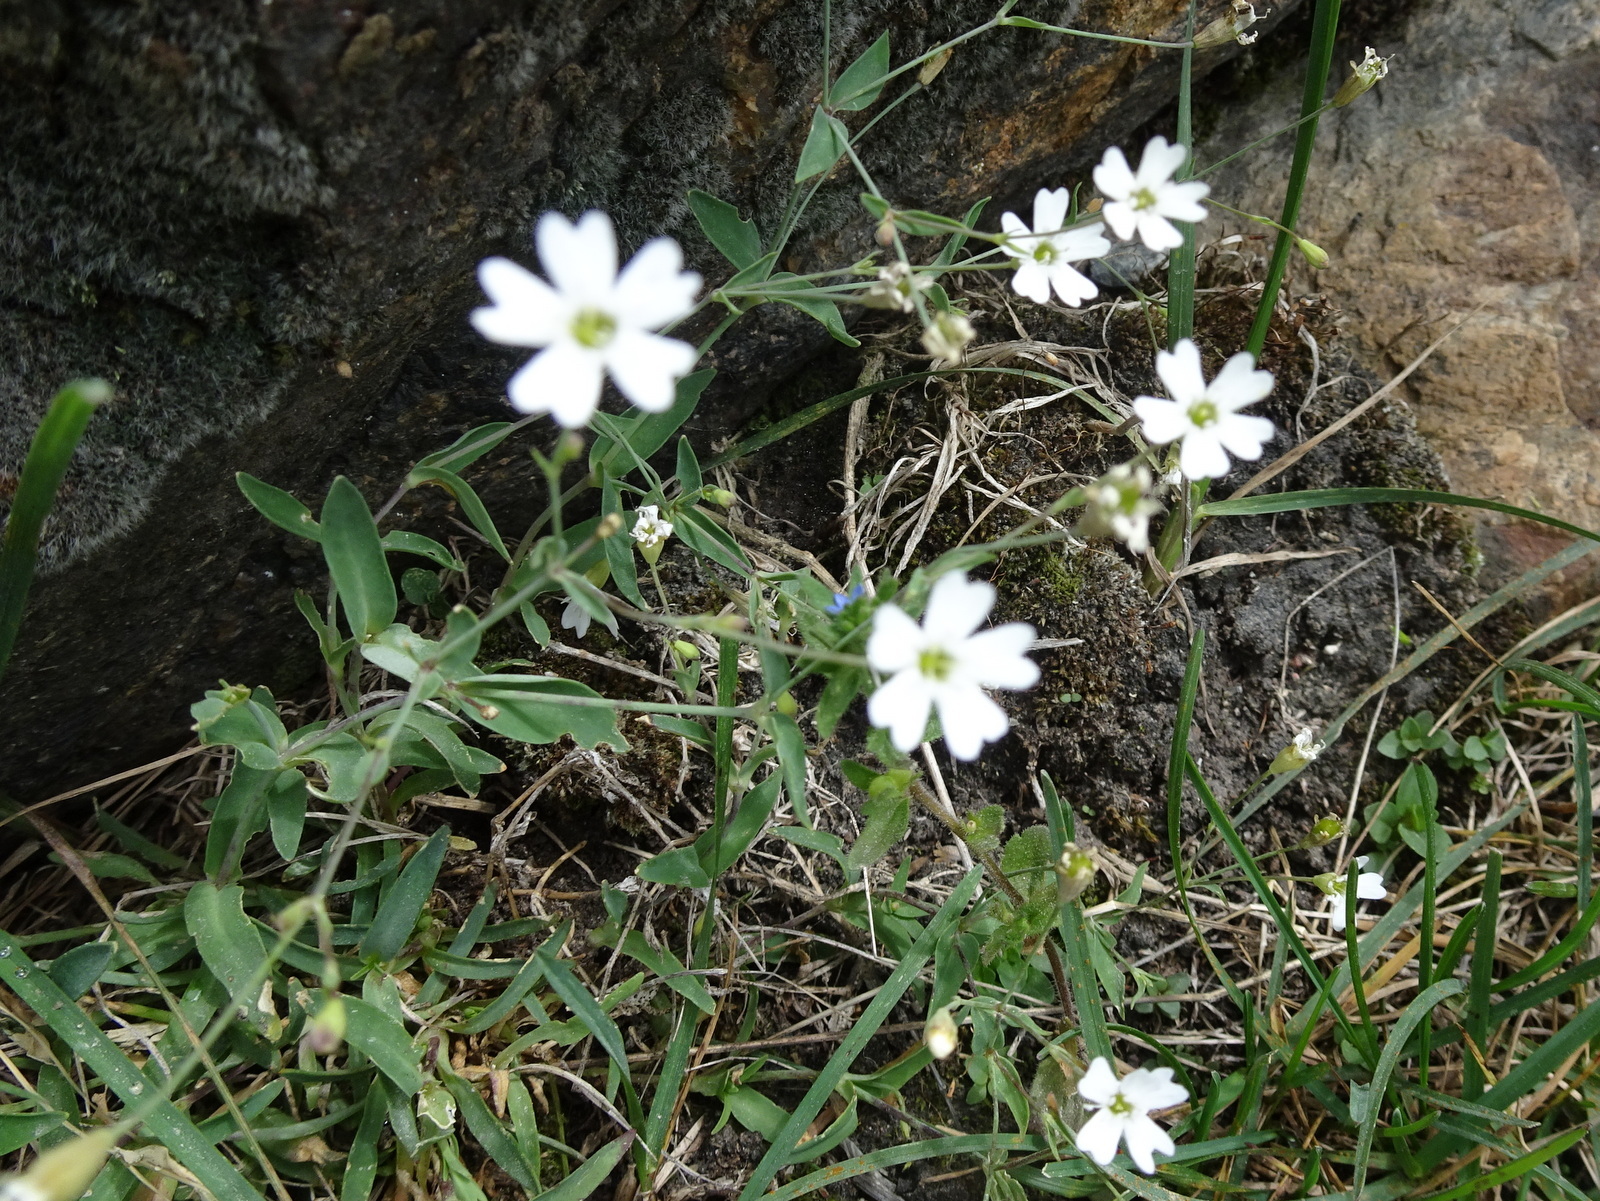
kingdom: Plantae
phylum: Tracheophyta
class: Magnoliopsida
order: Caryophyllales
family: Caryophyllaceae
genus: Atocion
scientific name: Atocion rupestre
